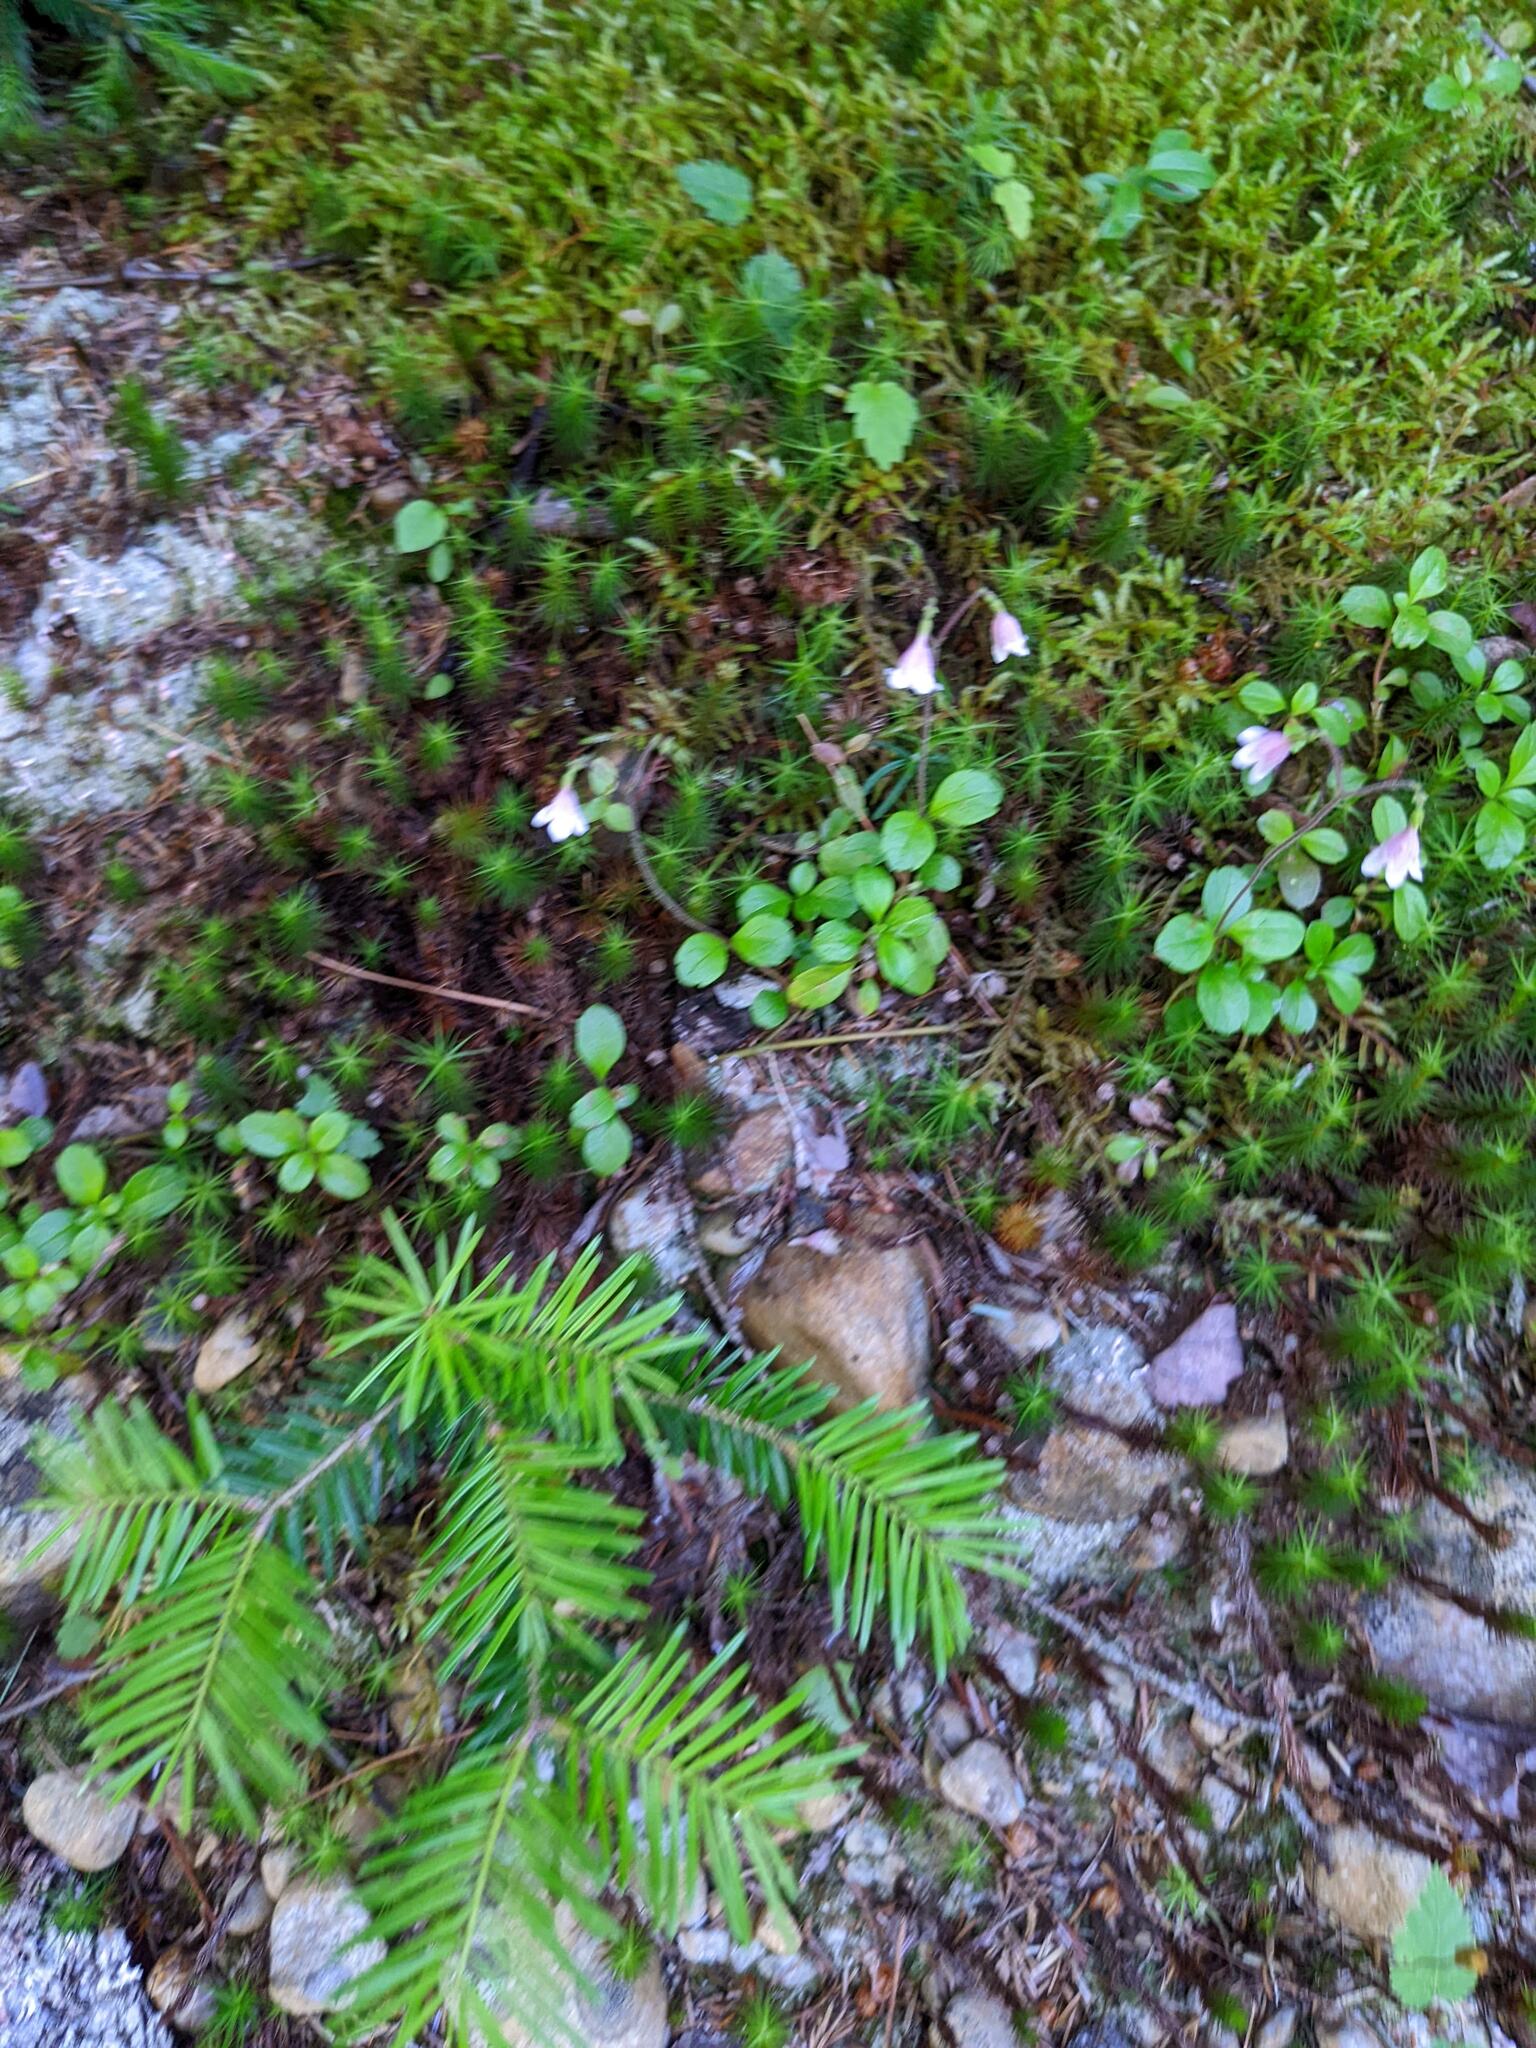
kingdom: Plantae
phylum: Tracheophyta
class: Magnoliopsida
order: Dipsacales
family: Caprifoliaceae
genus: Linnaea
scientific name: Linnaea borealis
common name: Twinflower
